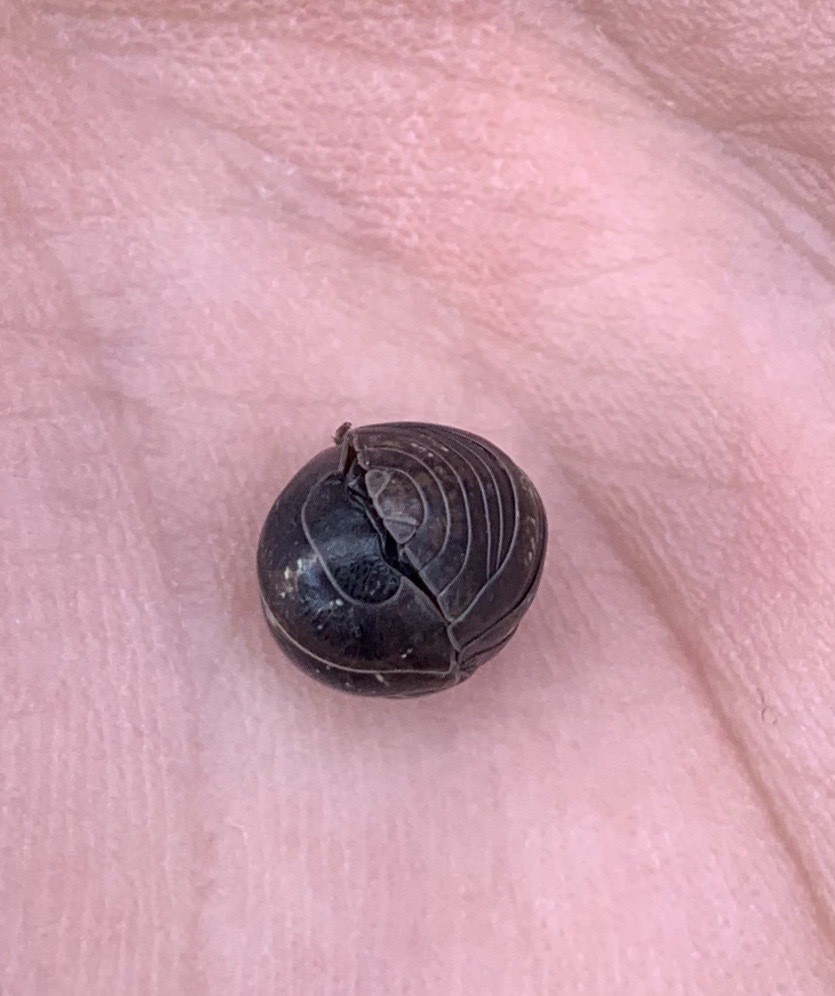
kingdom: Animalia
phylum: Arthropoda
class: Malacostraca
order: Isopoda
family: Armadillidiidae
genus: Armadillidium
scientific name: Armadillidium vulgare
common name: Common pill woodlouse
